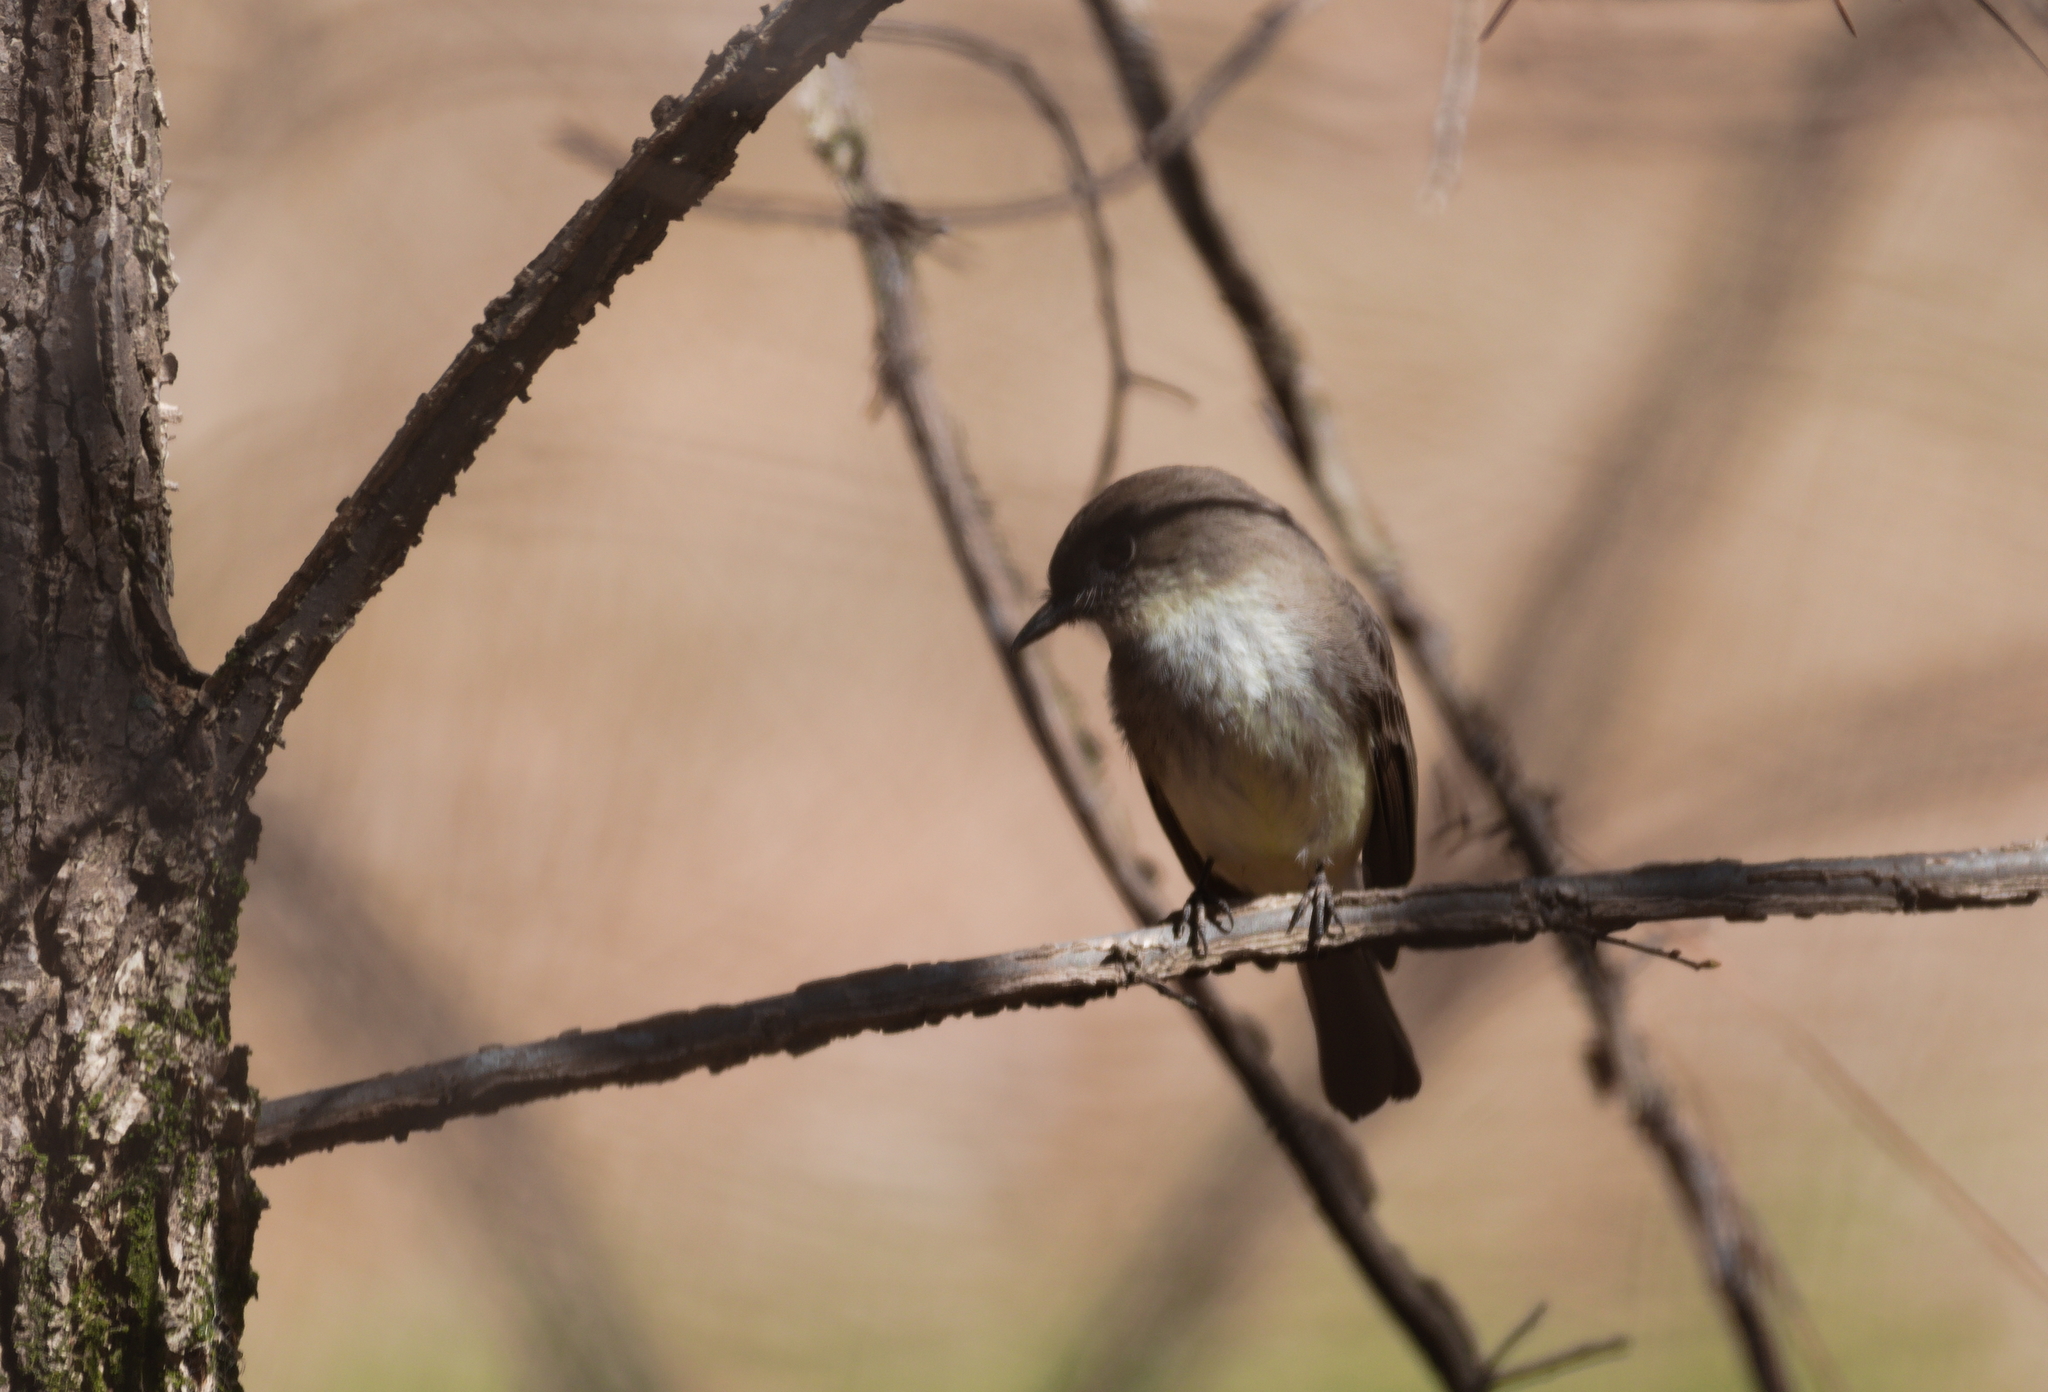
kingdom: Animalia
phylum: Chordata
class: Aves
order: Passeriformes
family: Tyrannidae
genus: Sayornis
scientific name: Sayornis phoebe
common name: Eastern phoebe
